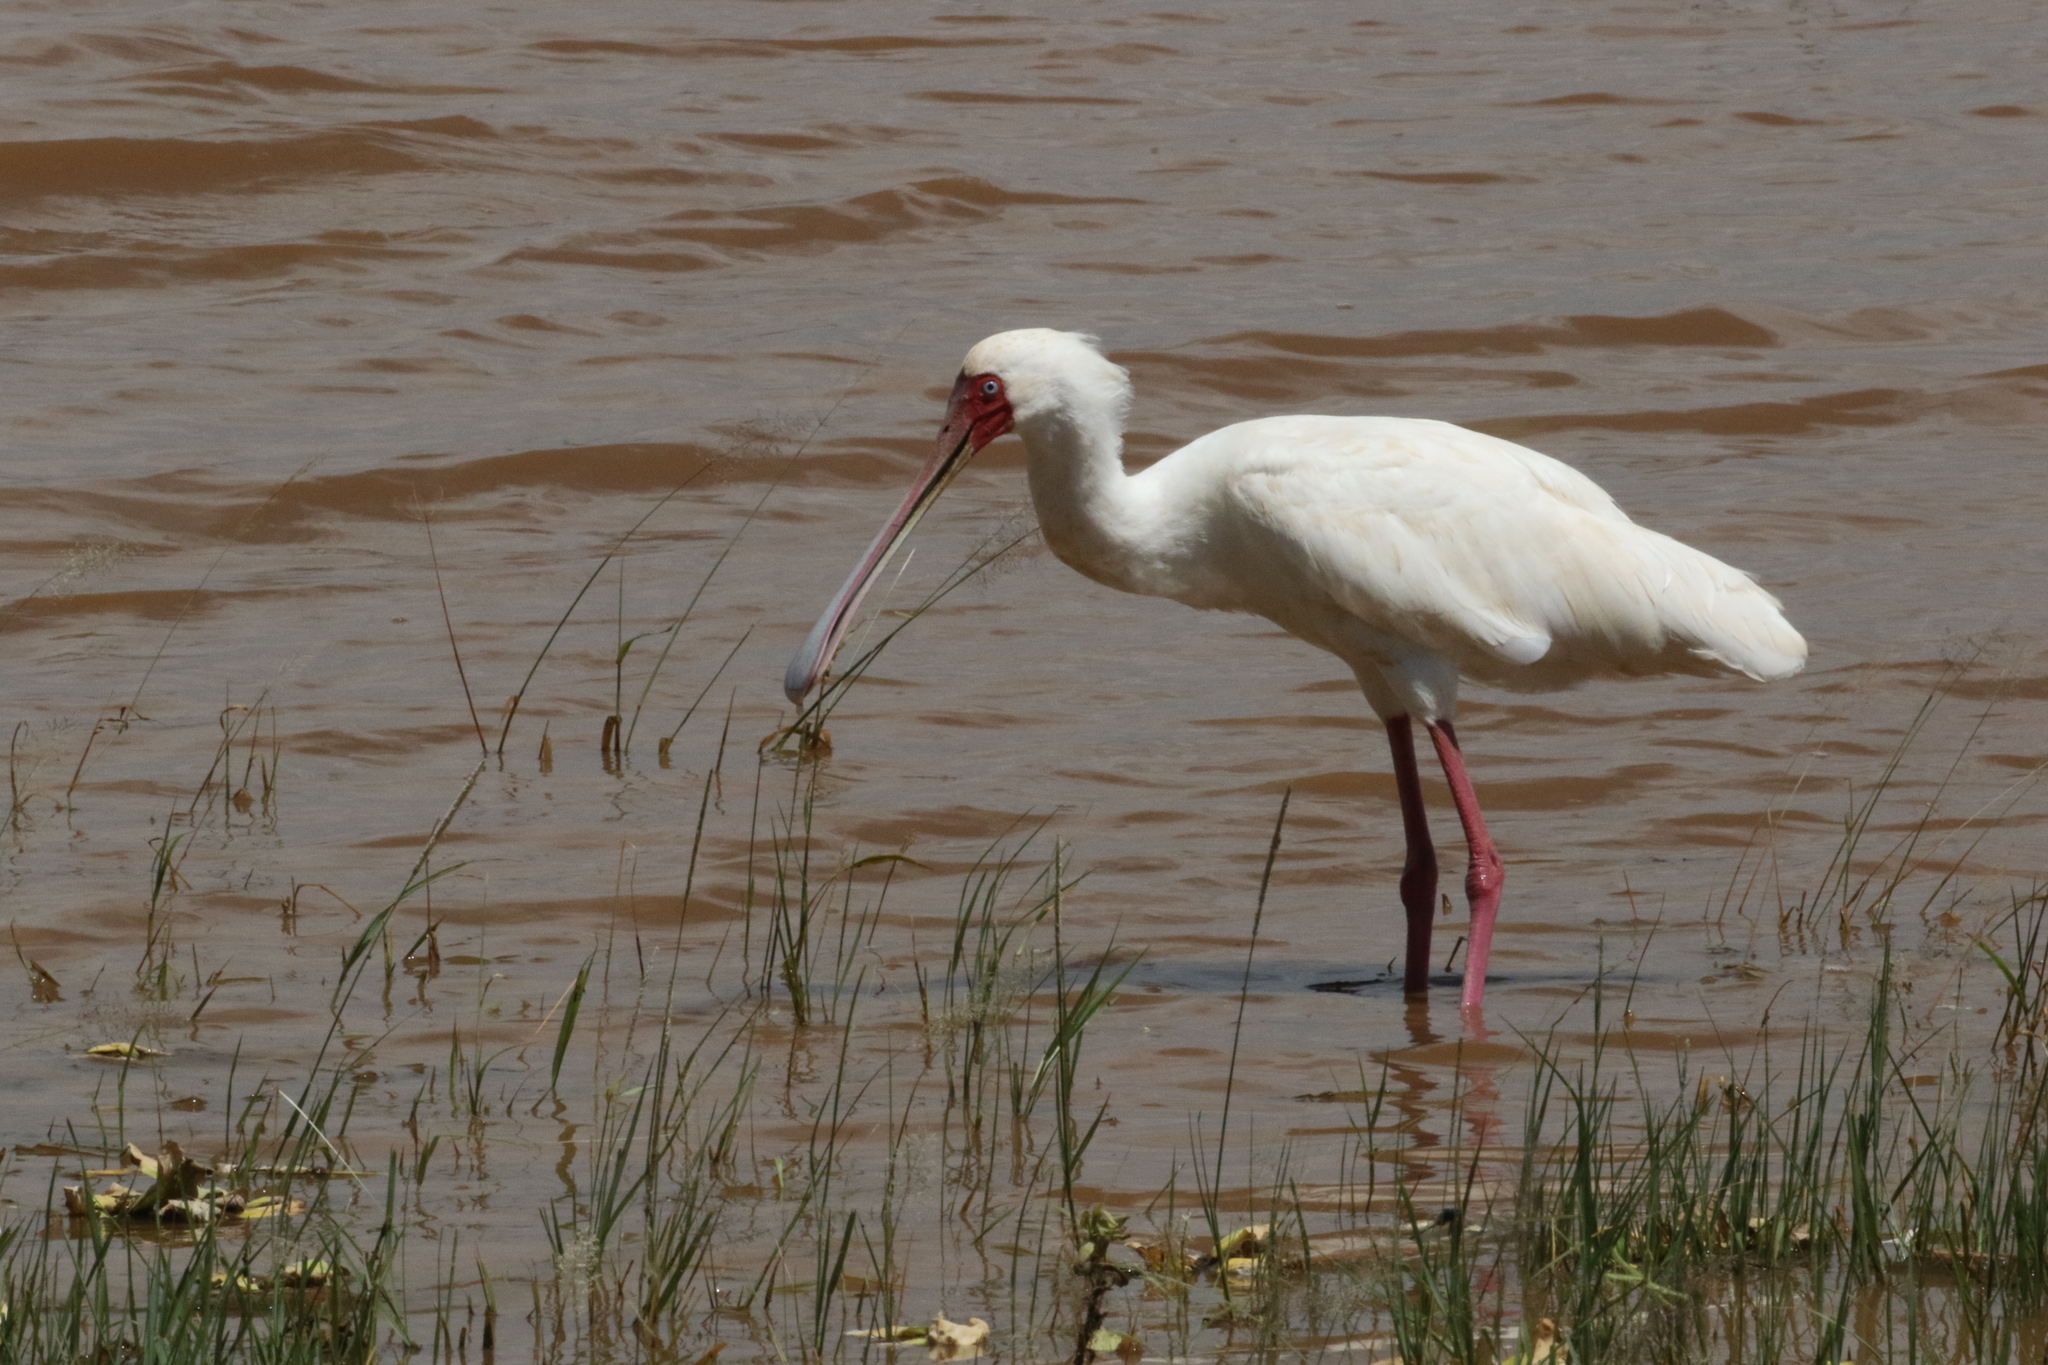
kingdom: Animalia
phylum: Chordata
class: Aves
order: Pelecaniformes
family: Threskiornithidae
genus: Platalea
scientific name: Platalea alba
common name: African spoonbill
